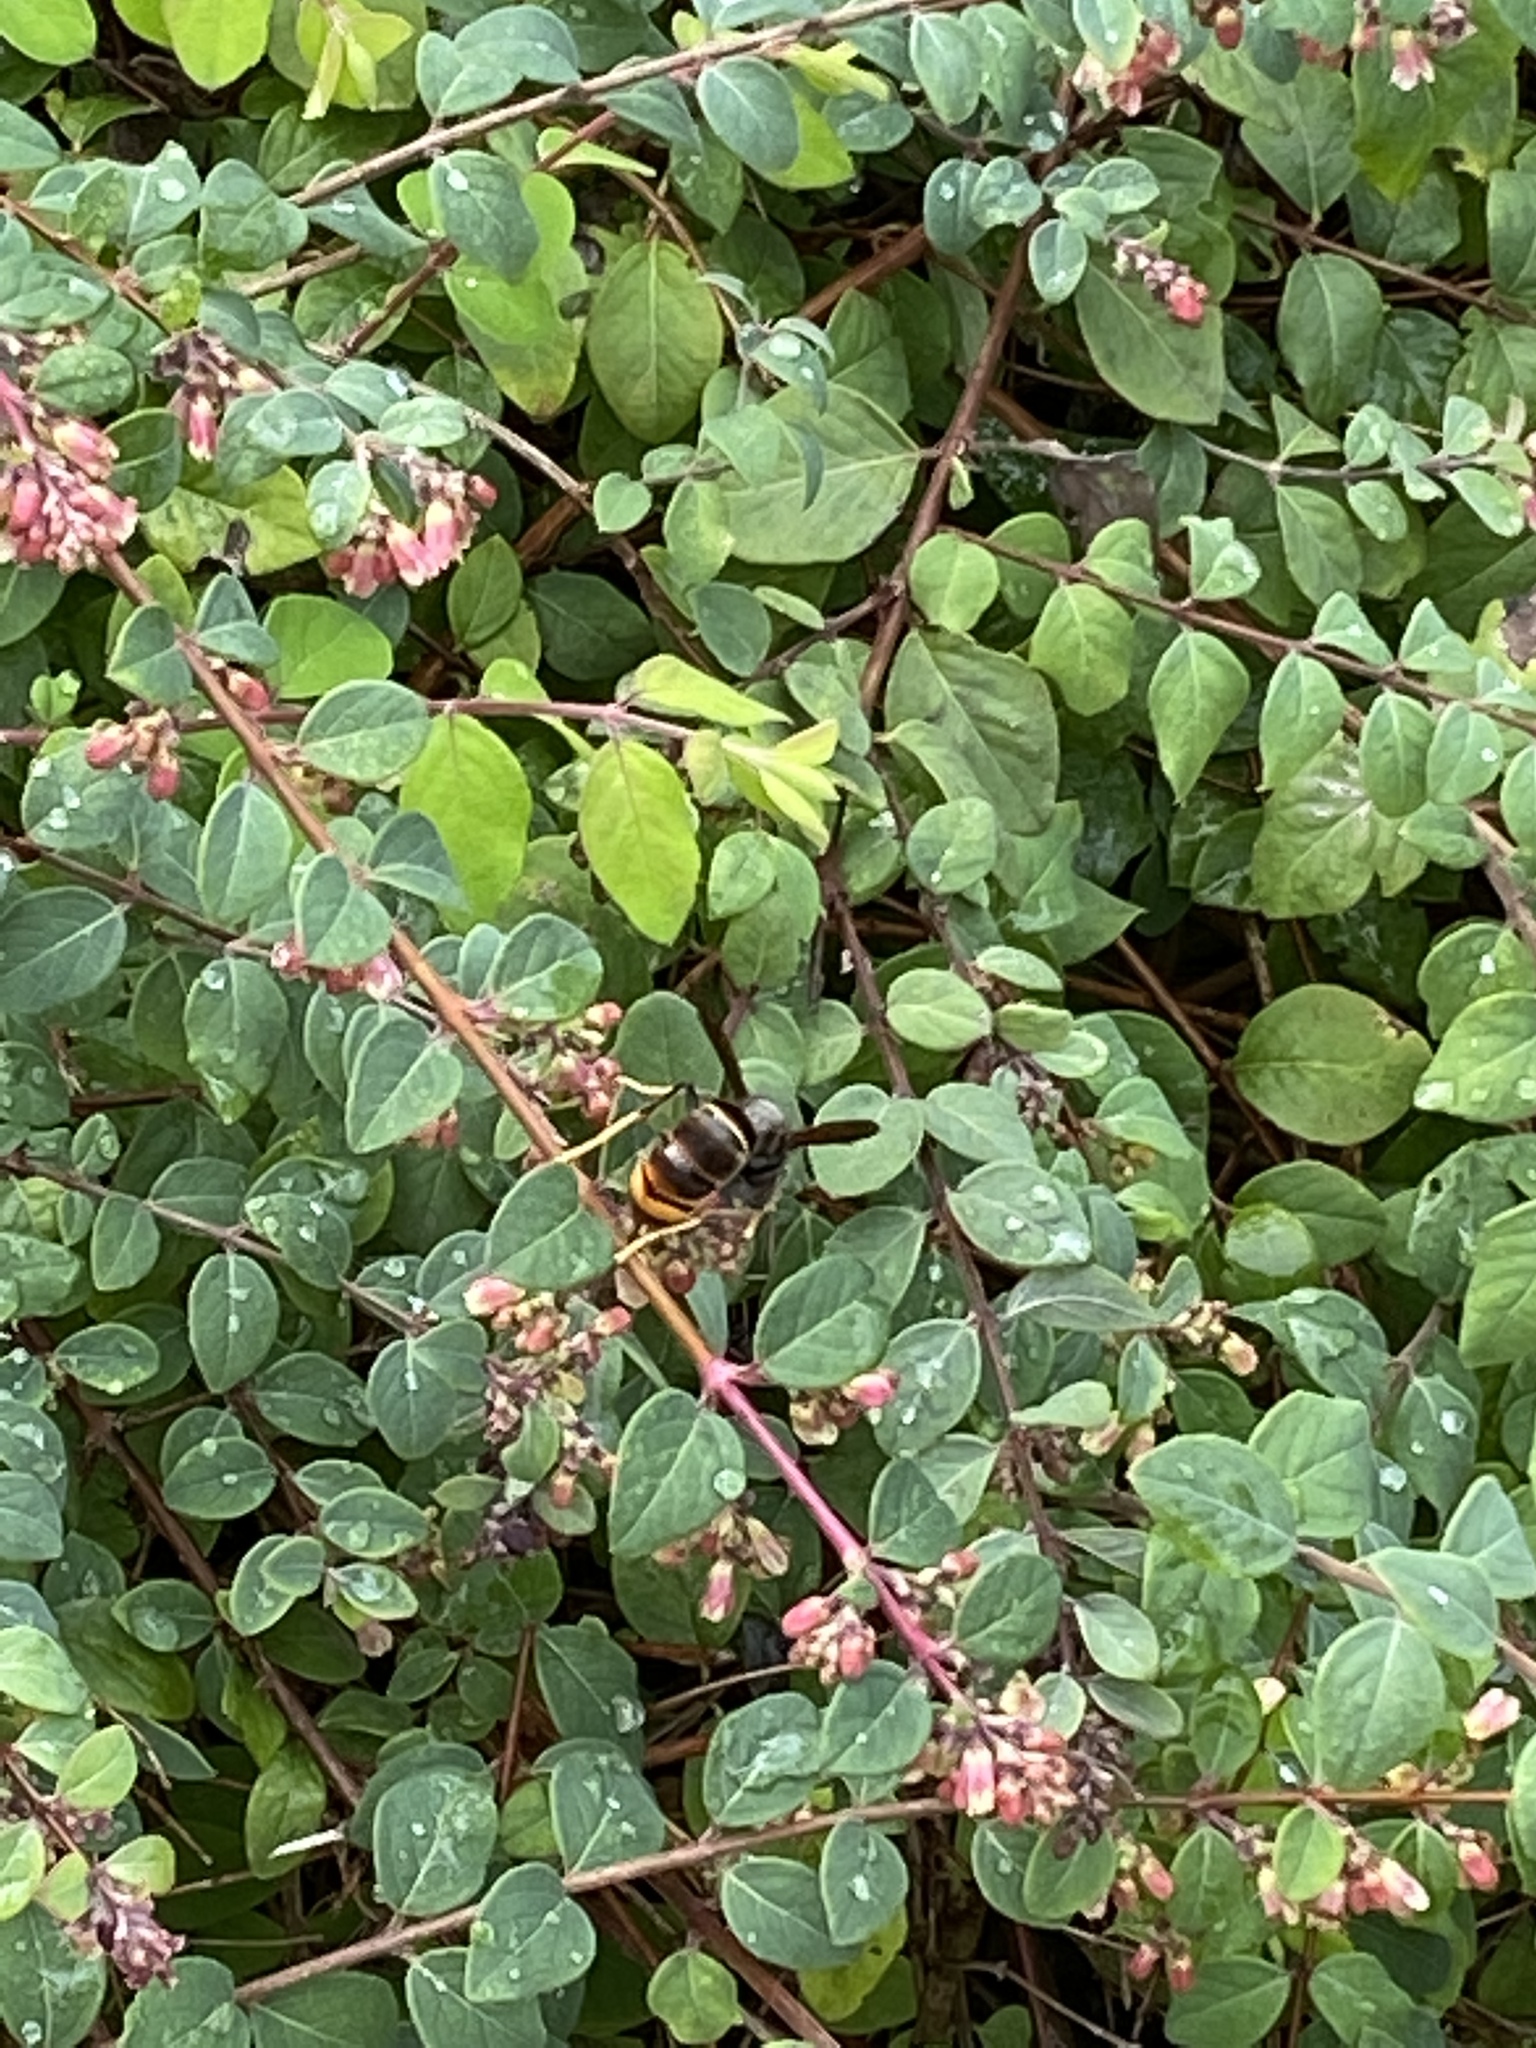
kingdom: Animalia
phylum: Arthropoda
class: Insecta
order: Hymenoptera
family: Vespidae
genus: Vespa
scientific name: Vespa velutina
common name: Asian hornet
